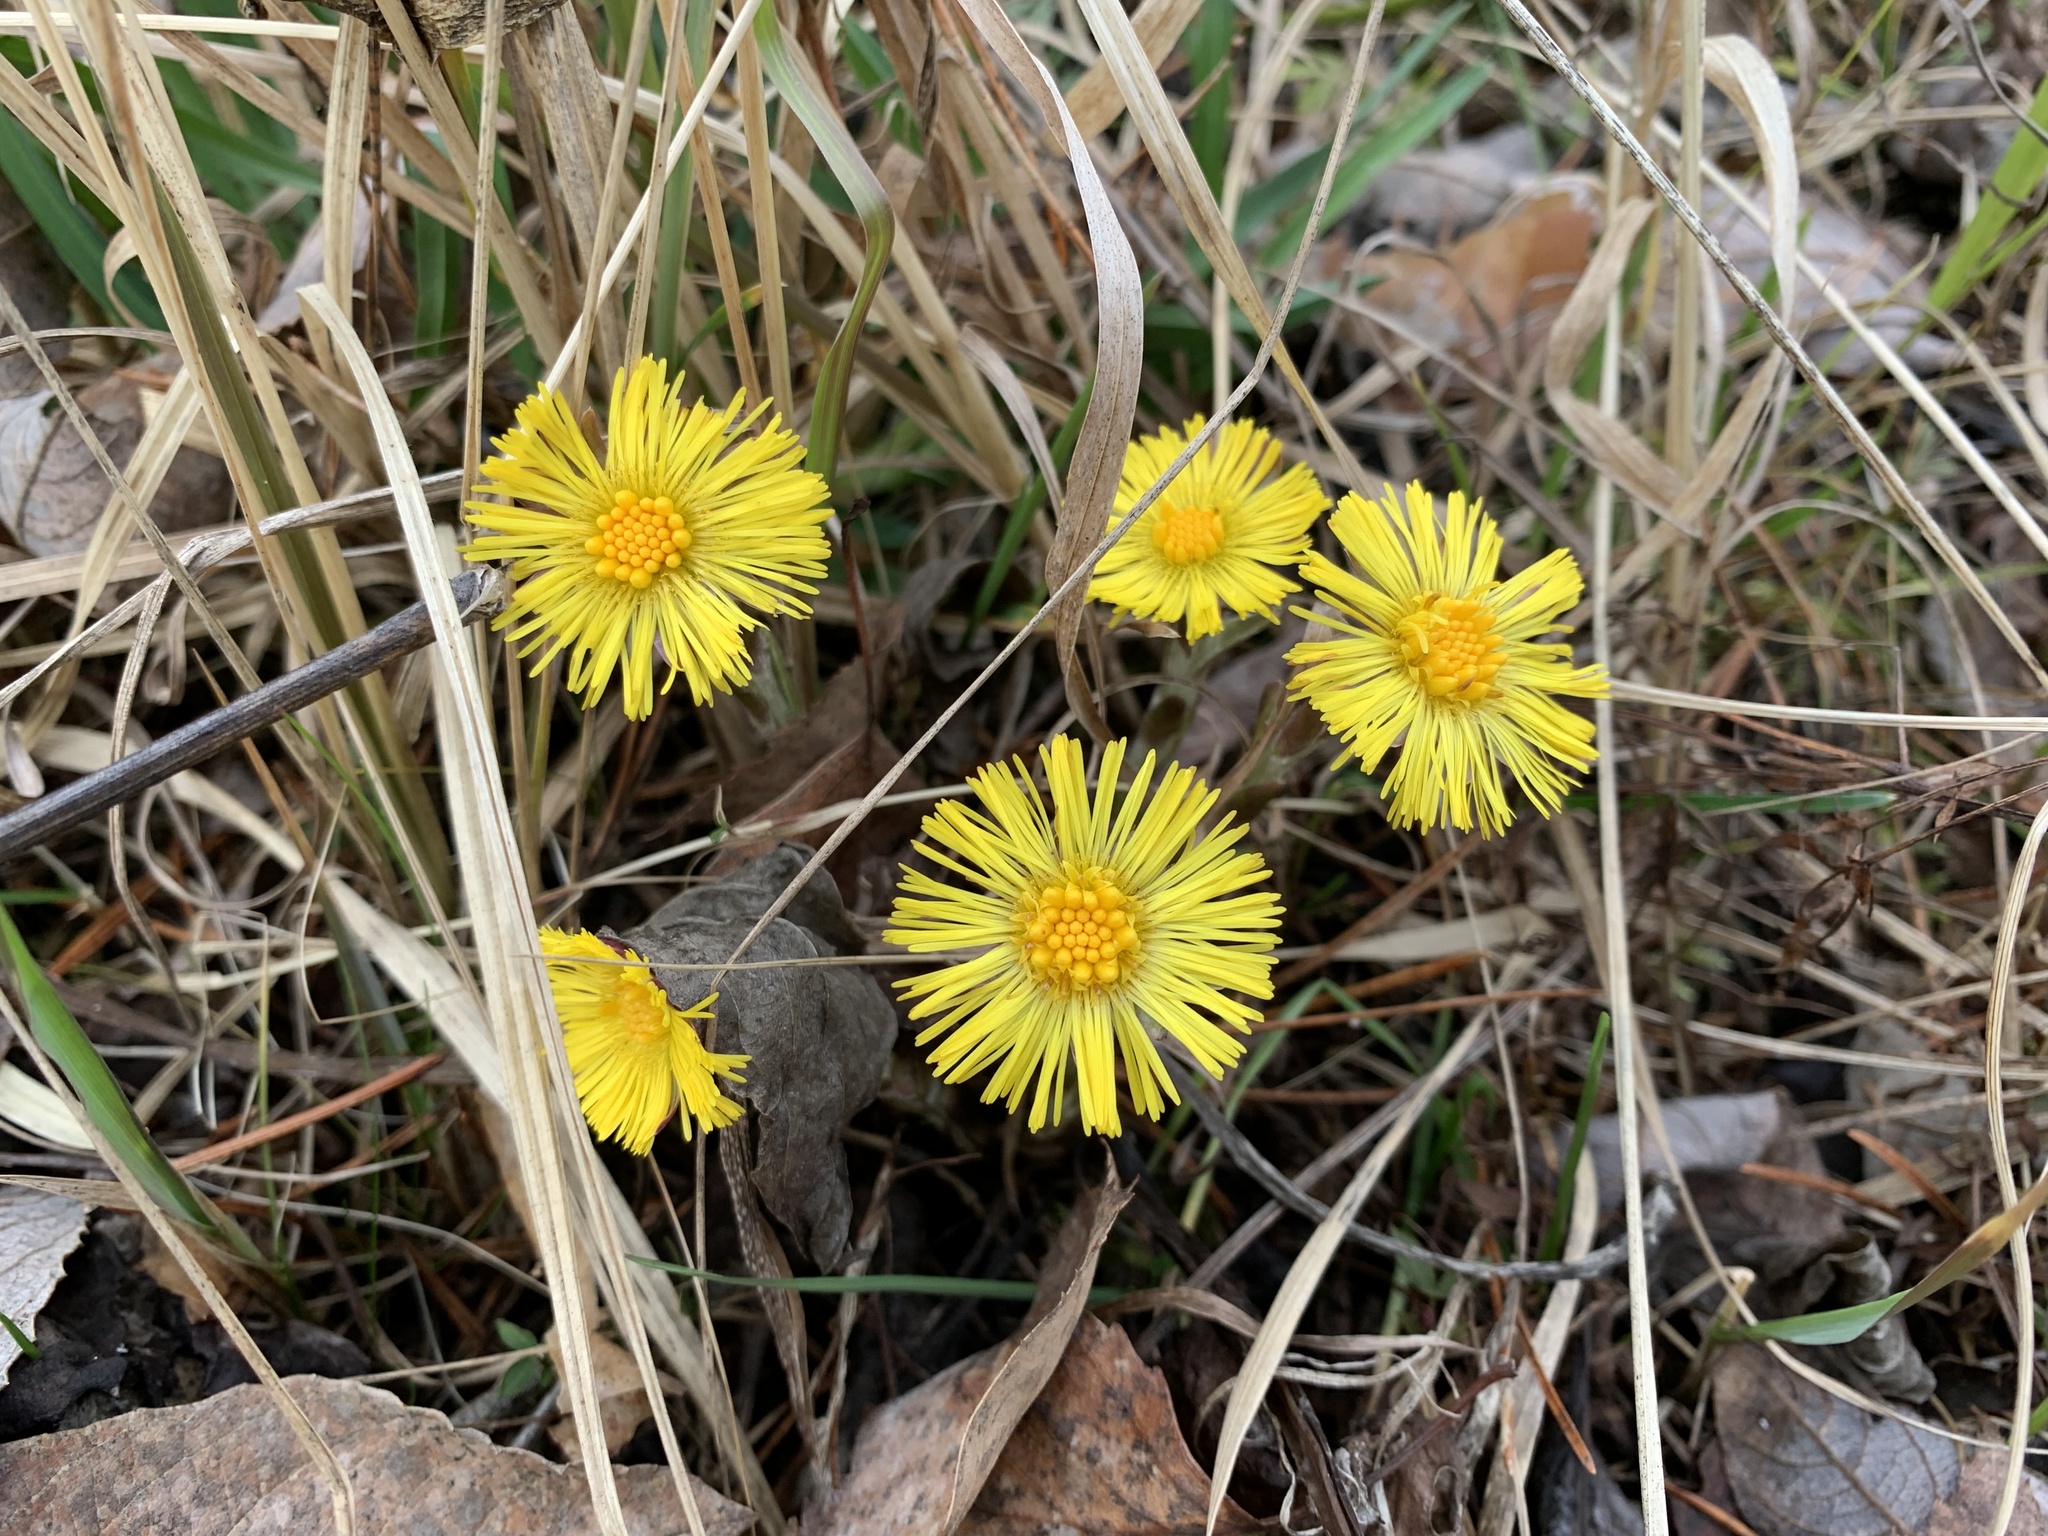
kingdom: Plantae
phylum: Tracheophyta
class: Magnoliopsida
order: Asterales
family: Asteraceae
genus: Tussilago
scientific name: Tussilago farfara
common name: Coltsfoot
